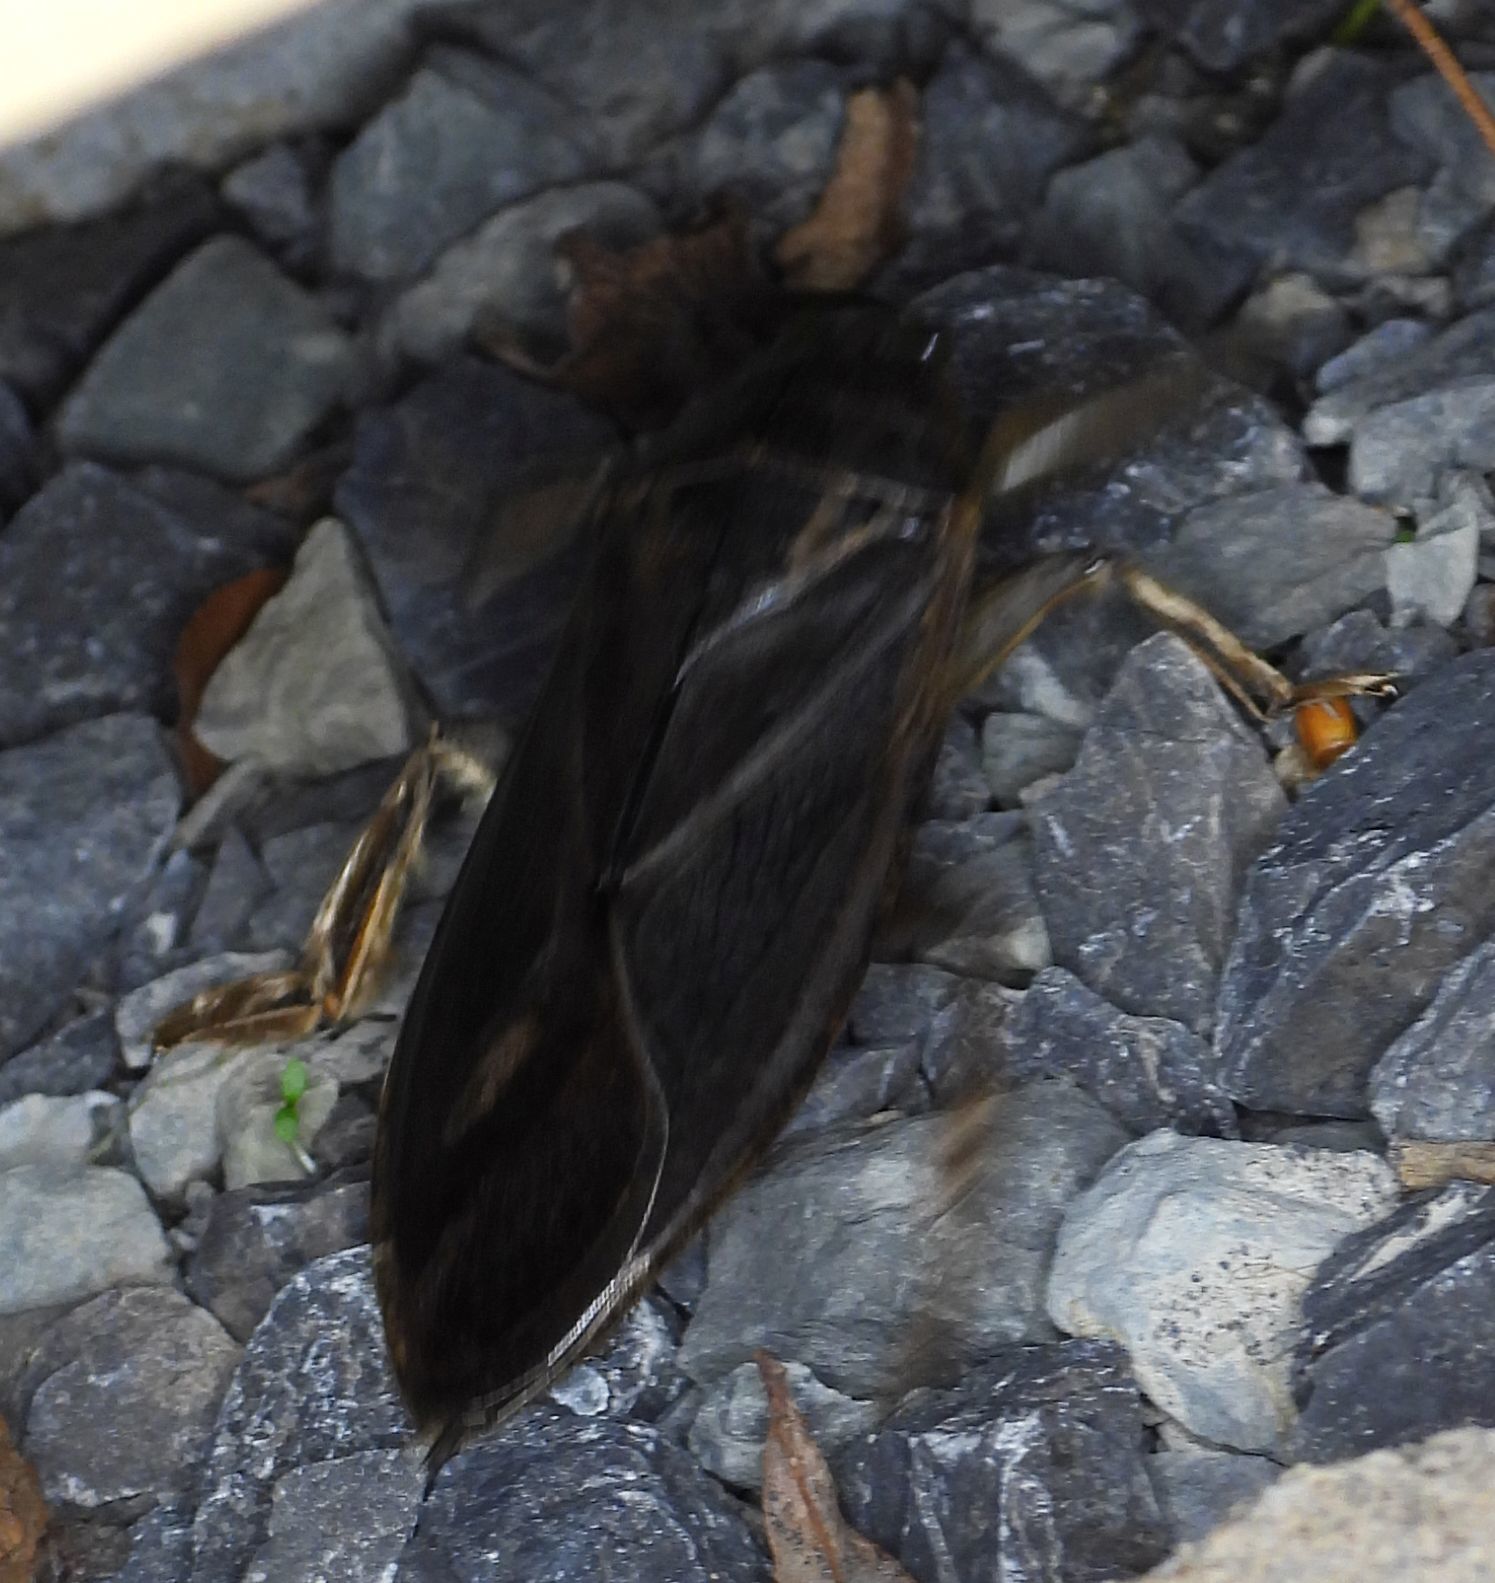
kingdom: Animalia
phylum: Arthropoda
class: Insecta
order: Hemiptera
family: Belostomatidae
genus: Lethocerus
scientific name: Lethocerus americanus
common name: Giant water bug
